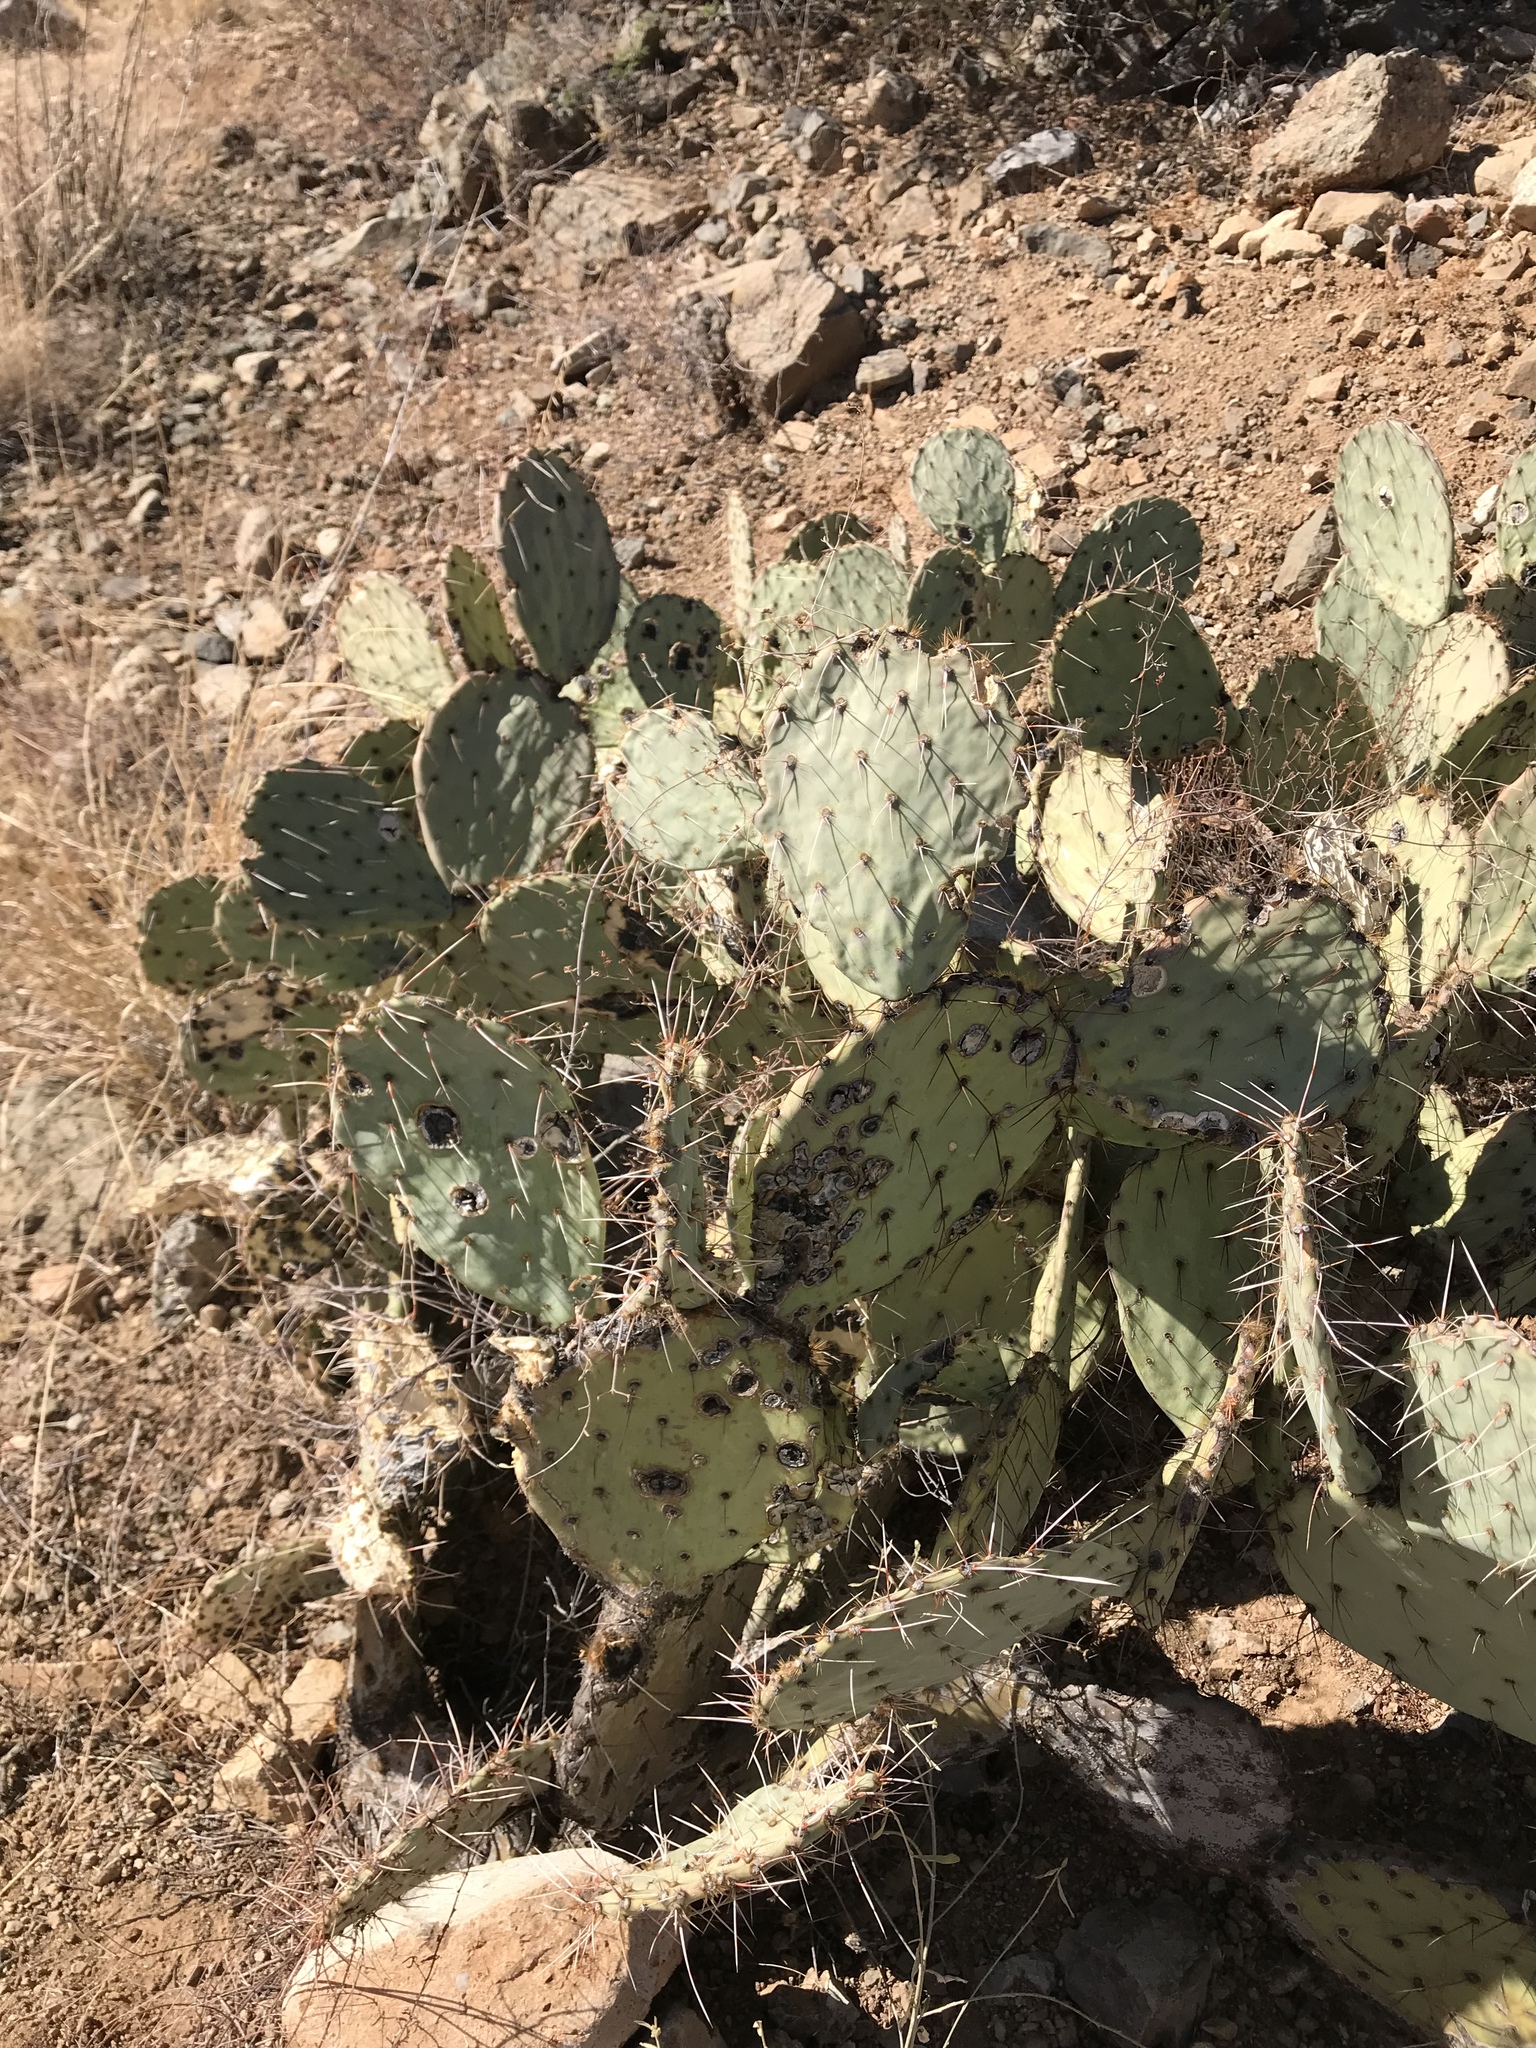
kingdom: Plantae
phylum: Tracheophyta
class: Magnoliopsida
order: Caryophyllales
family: Cactaceae
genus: Opuntia
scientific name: Opuntia engelmannii
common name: Cactus-apple
